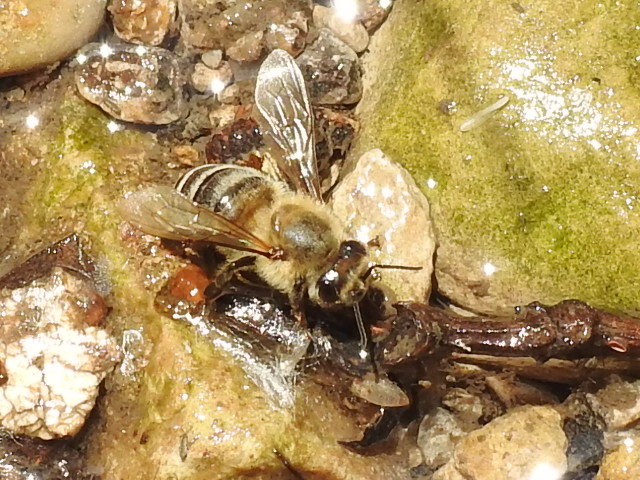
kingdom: Animalia
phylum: Arthropoda
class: Insecta
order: Hymenoptera
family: Apidae
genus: Apis
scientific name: Apis mellifera
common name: Honey bee
